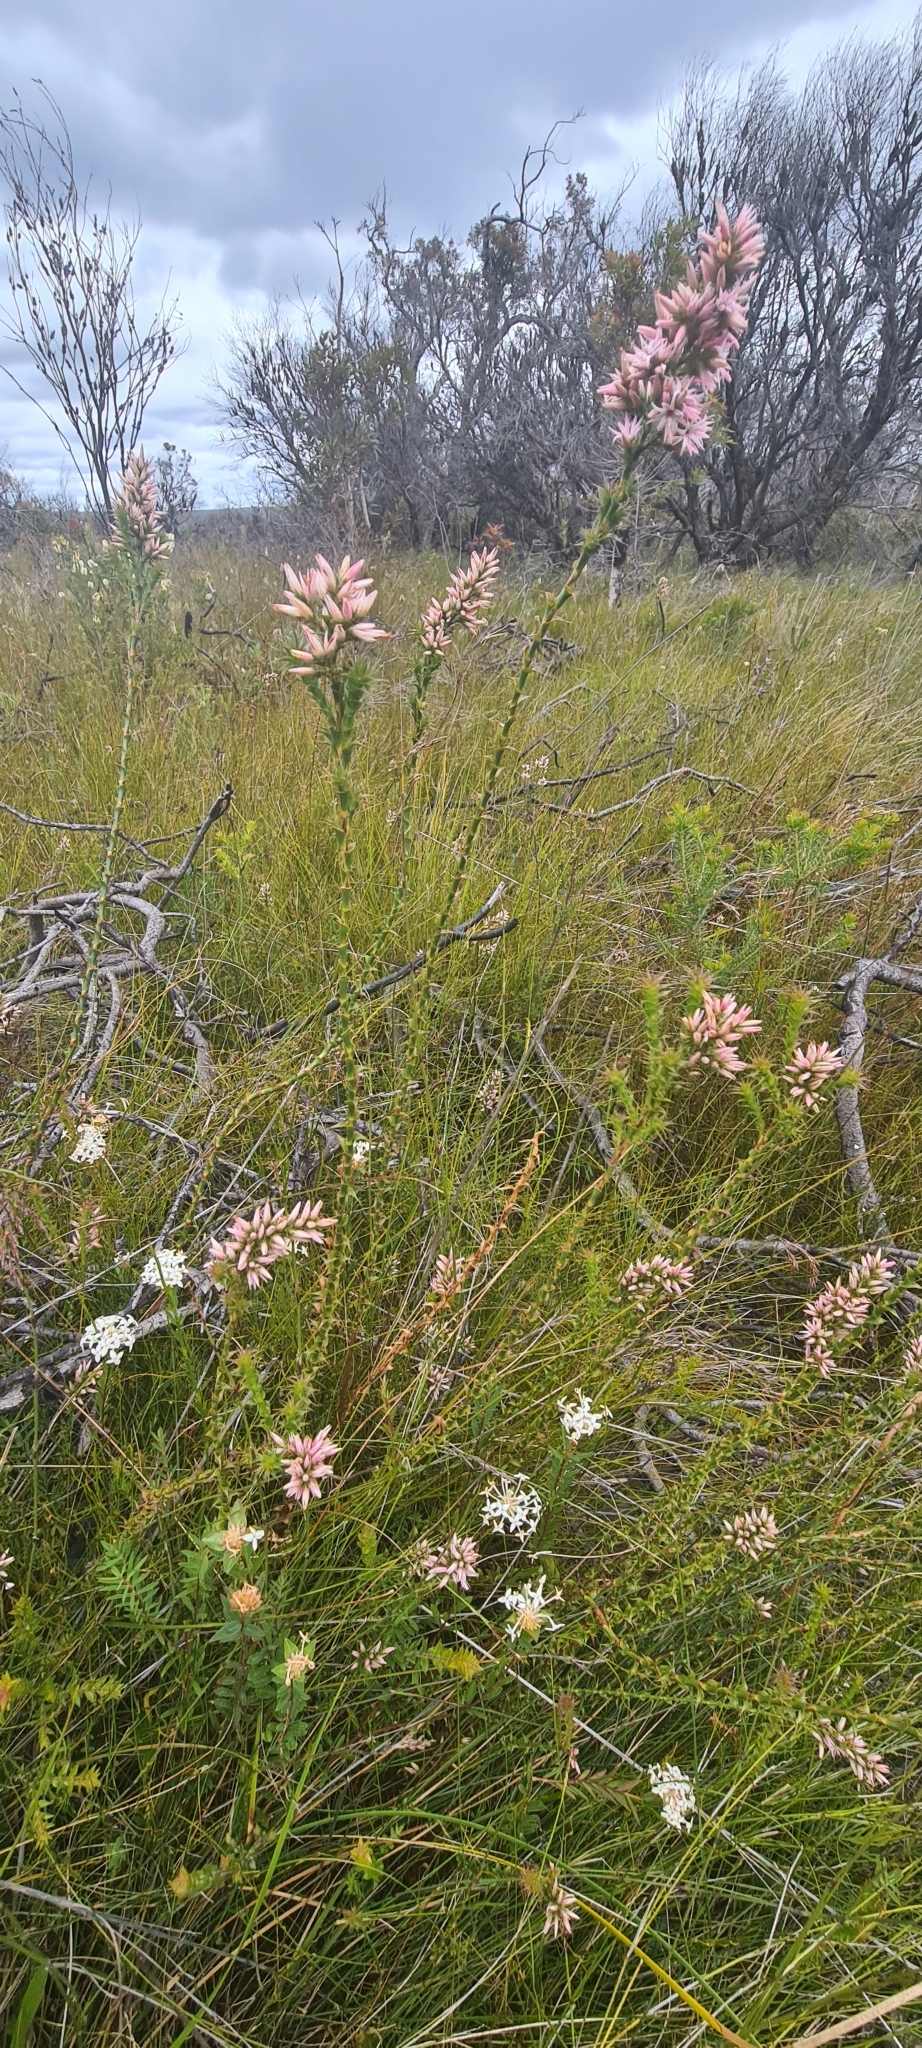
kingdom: Plantae
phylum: Tracheophyta
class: Magnoliopsida
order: Ericales
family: Ericaceae
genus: Sprengelia
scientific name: Sprengelia incarnata
